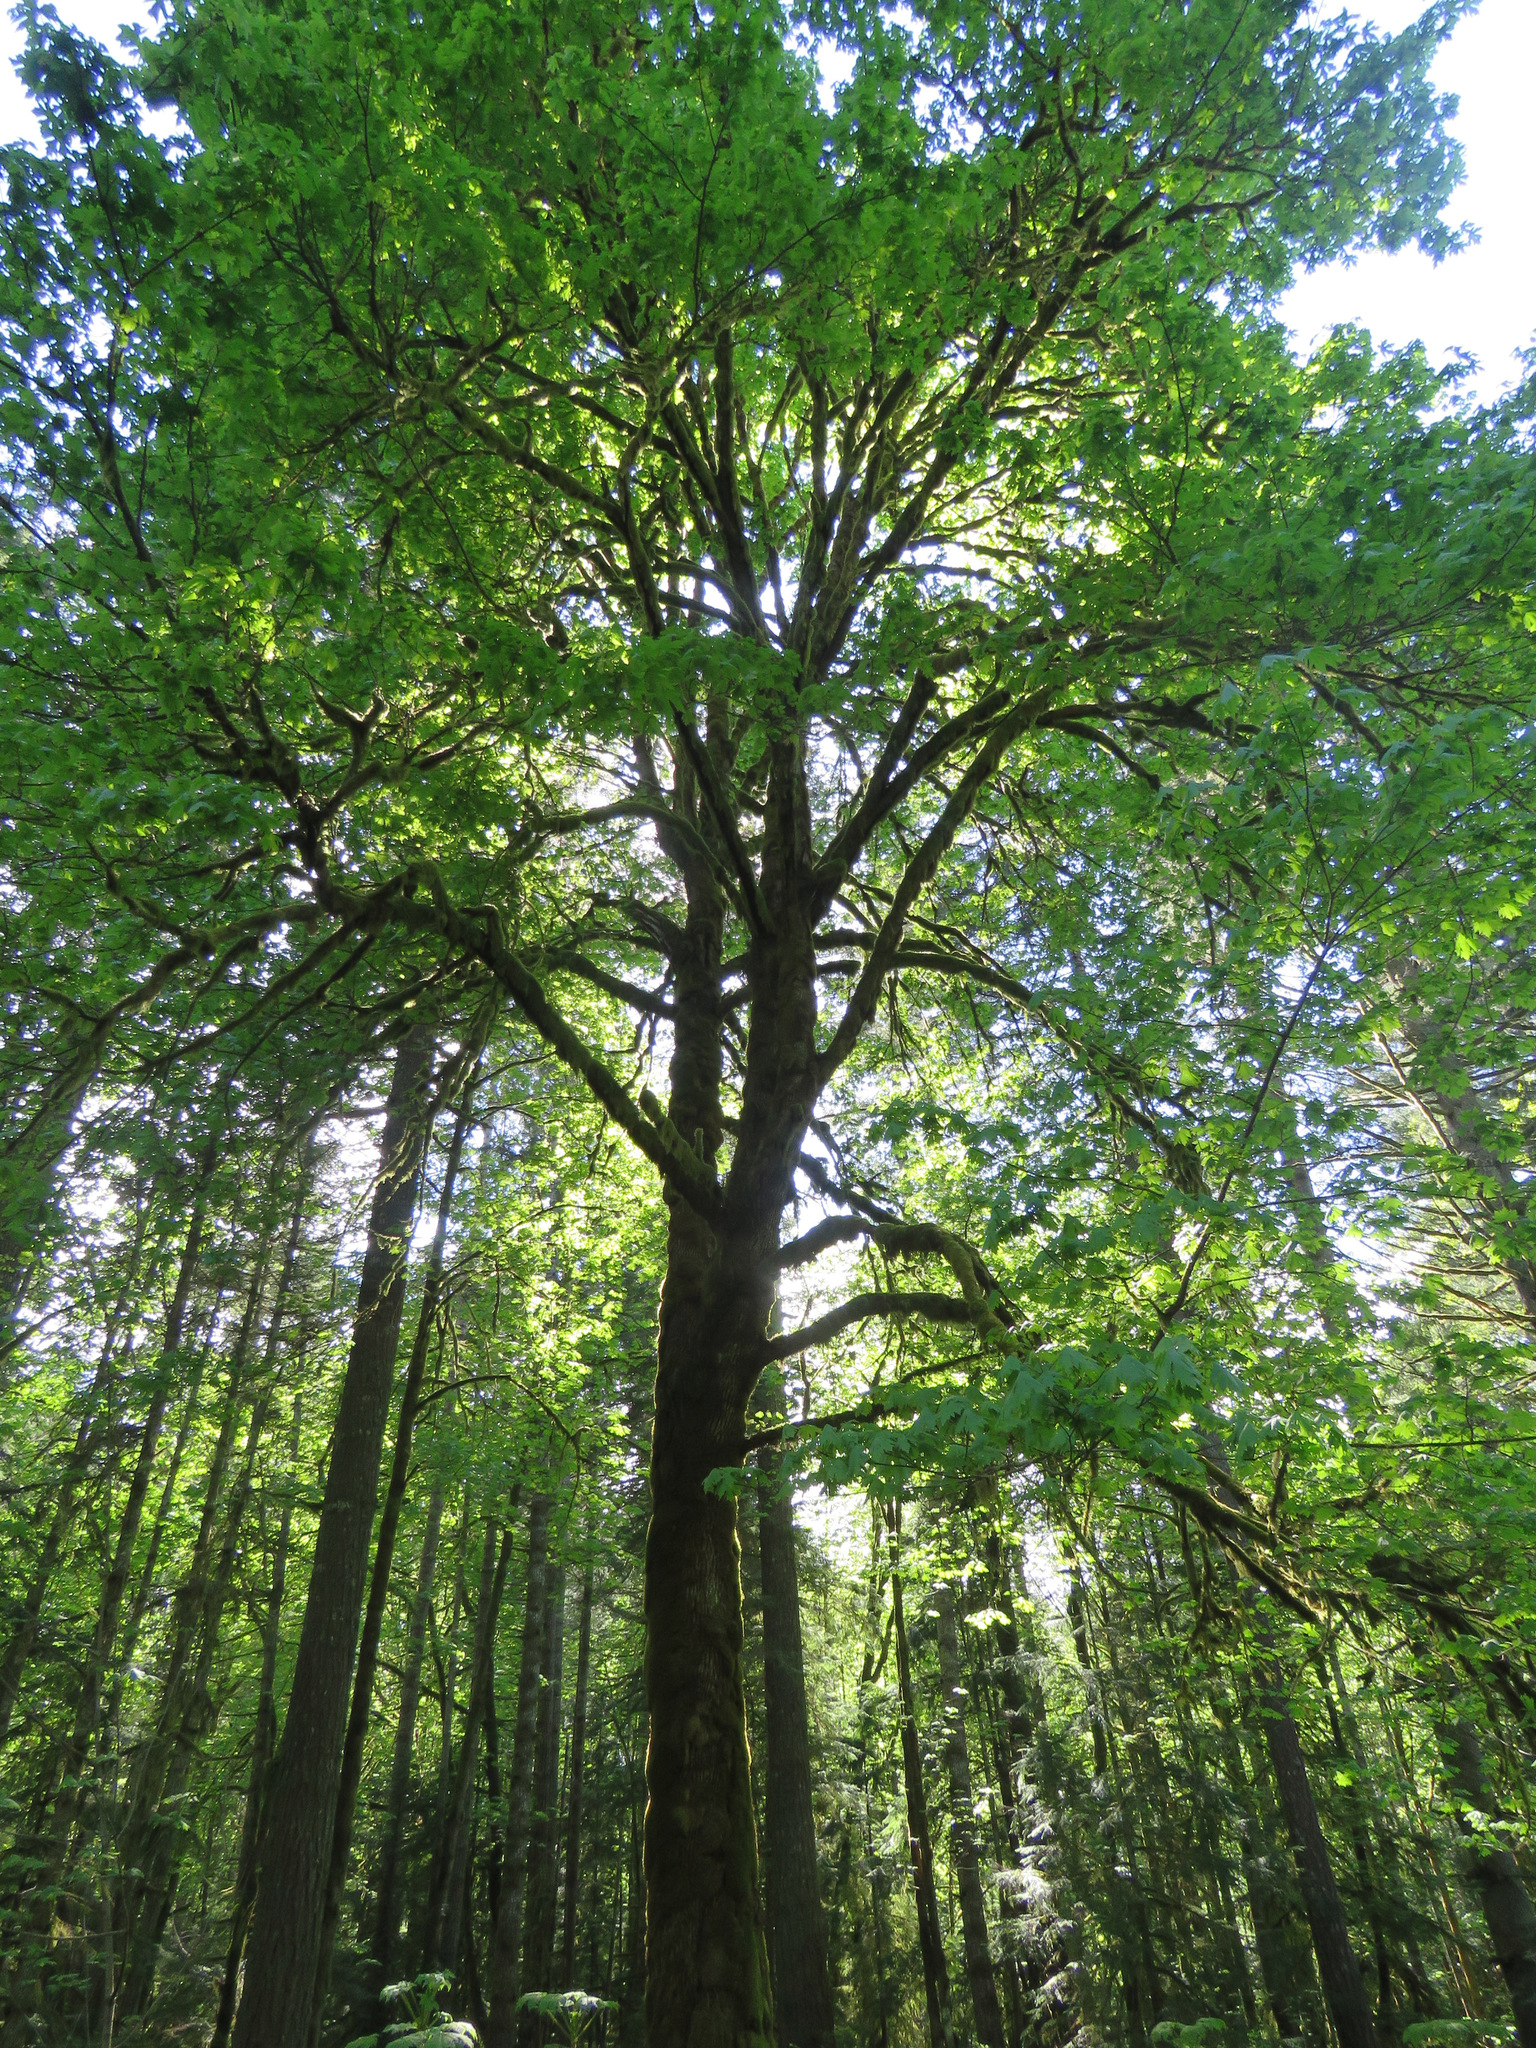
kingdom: Plantae
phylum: Tracheophyta
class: Magnoliopsida
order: Sapindales
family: Sapindaceae
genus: Acer
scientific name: Acer macrophyllum
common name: Oregon maple
